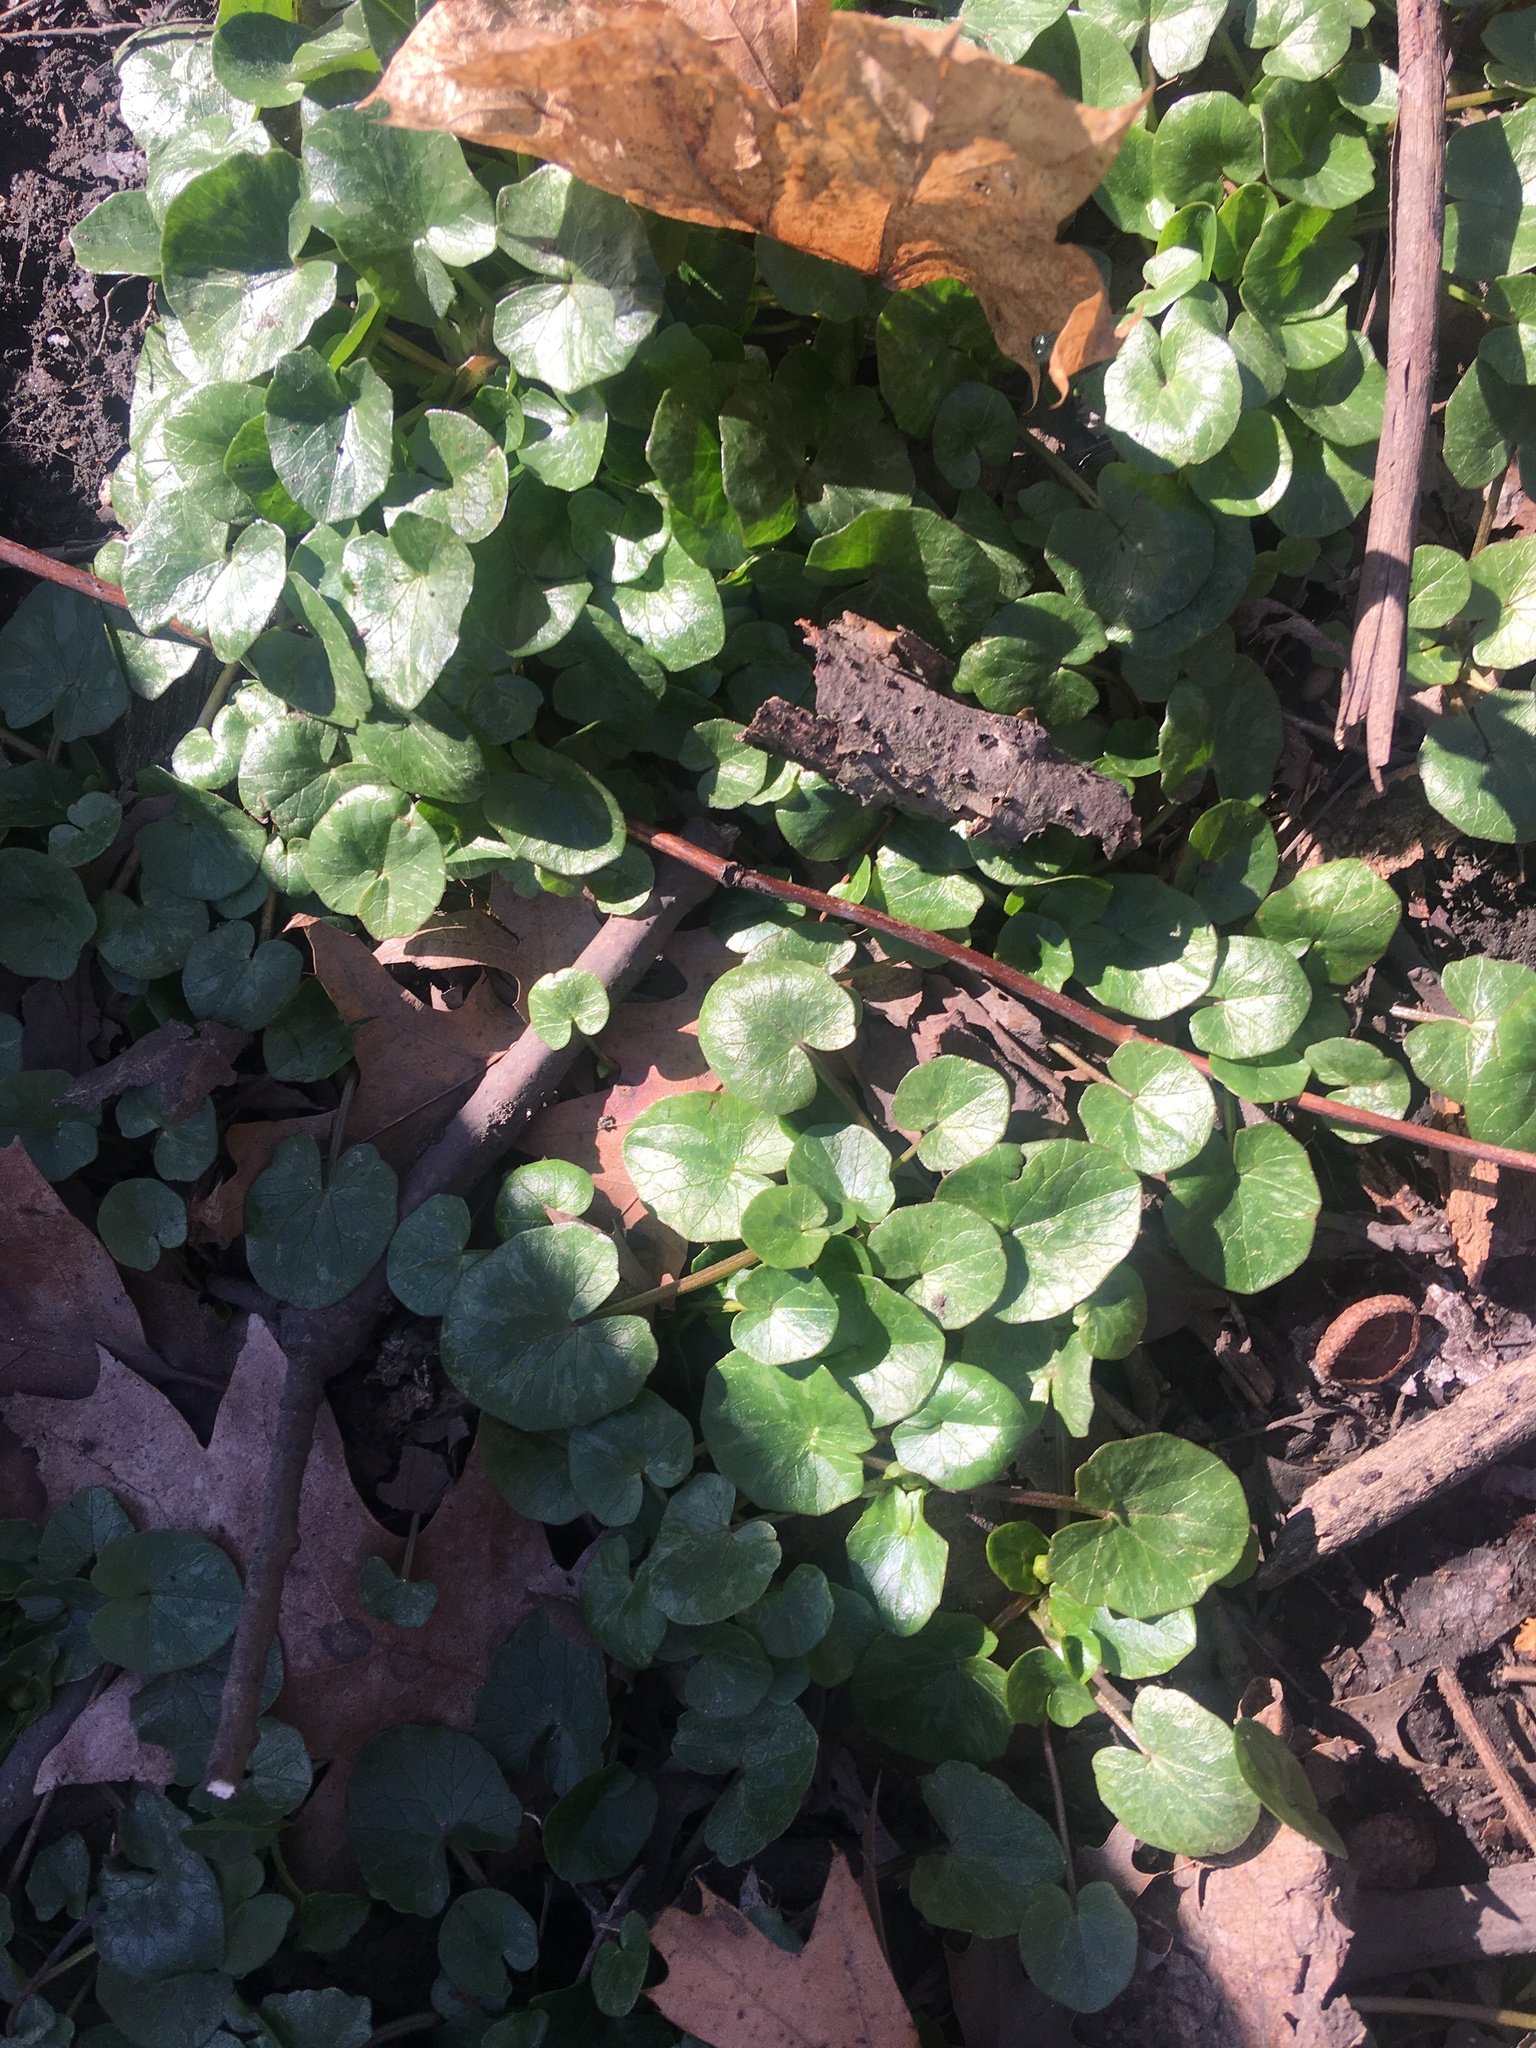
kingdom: Plantae
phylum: Tracheophyta
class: Magnoliopsida
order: Ranunculales
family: Ranunculaceae
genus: Ficaria
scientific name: Ficaria verna
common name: Lesser celandine
